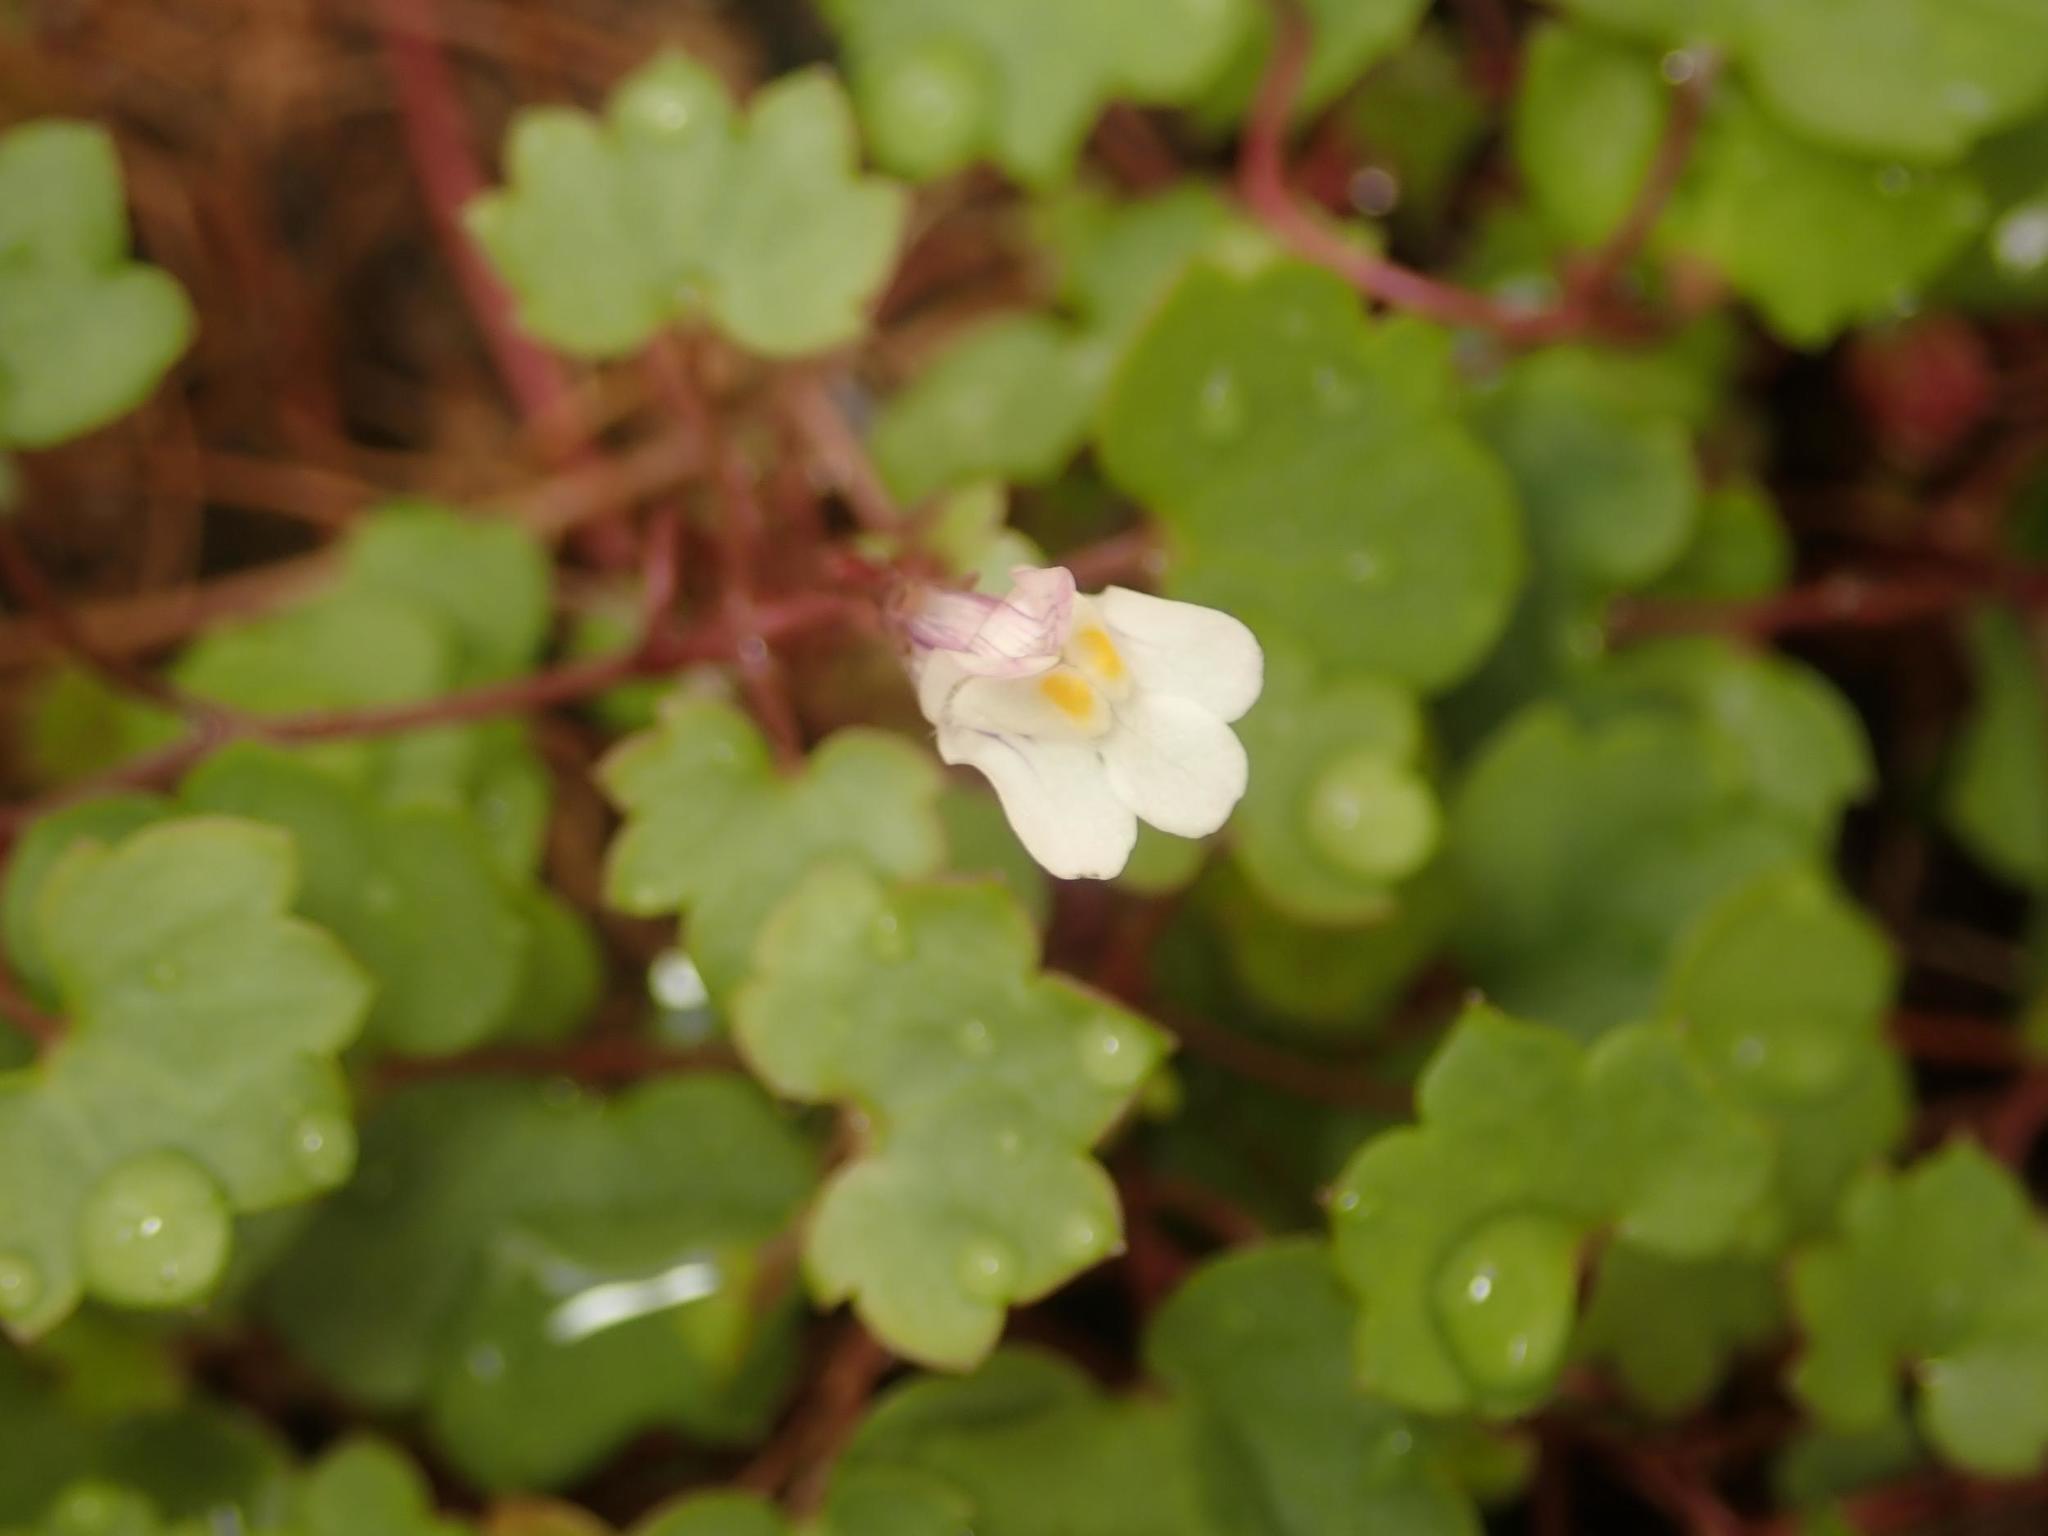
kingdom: Plantae
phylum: Tracheophyta
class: Magnoliopsida
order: Lamiales
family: Plantaginaceae
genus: Cymbalaria
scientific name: Cymbalaria muralis
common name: Ivy-leaved toadflax
